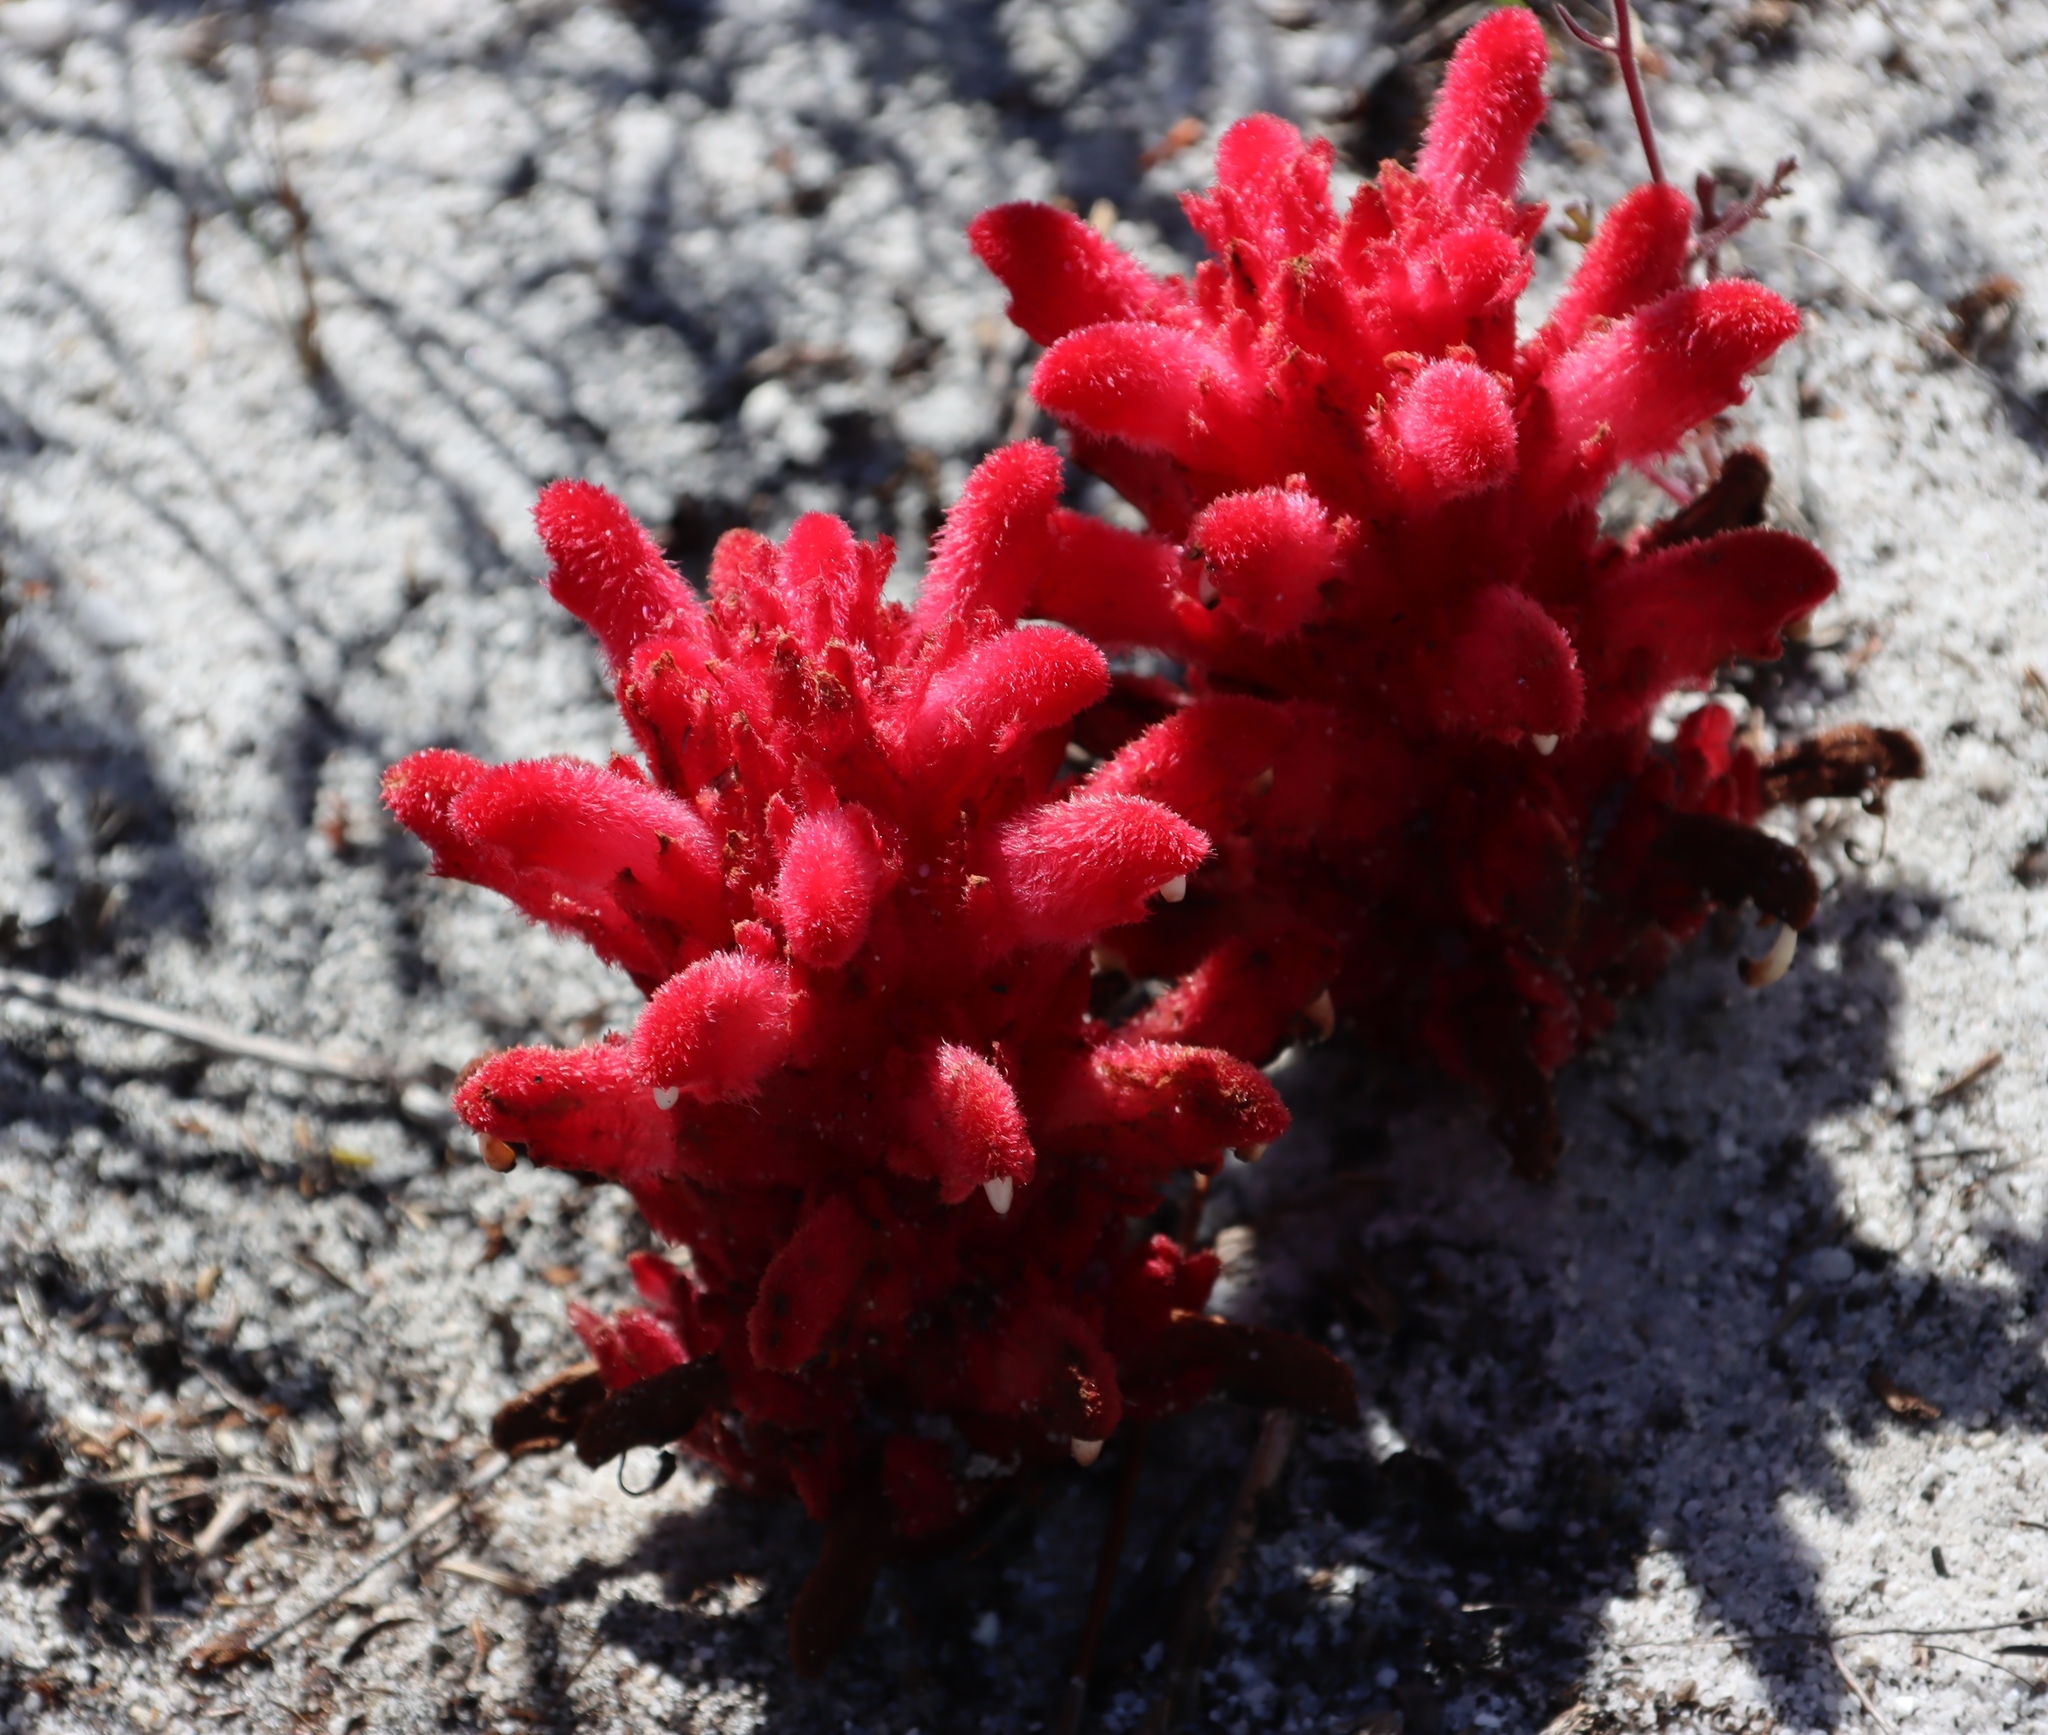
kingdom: Plantae
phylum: Tracheophyta
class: Magnoliopsida
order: Lamiales
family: Orobanchaceae
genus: Hyobanche
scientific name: Hyobanche sanguinea
